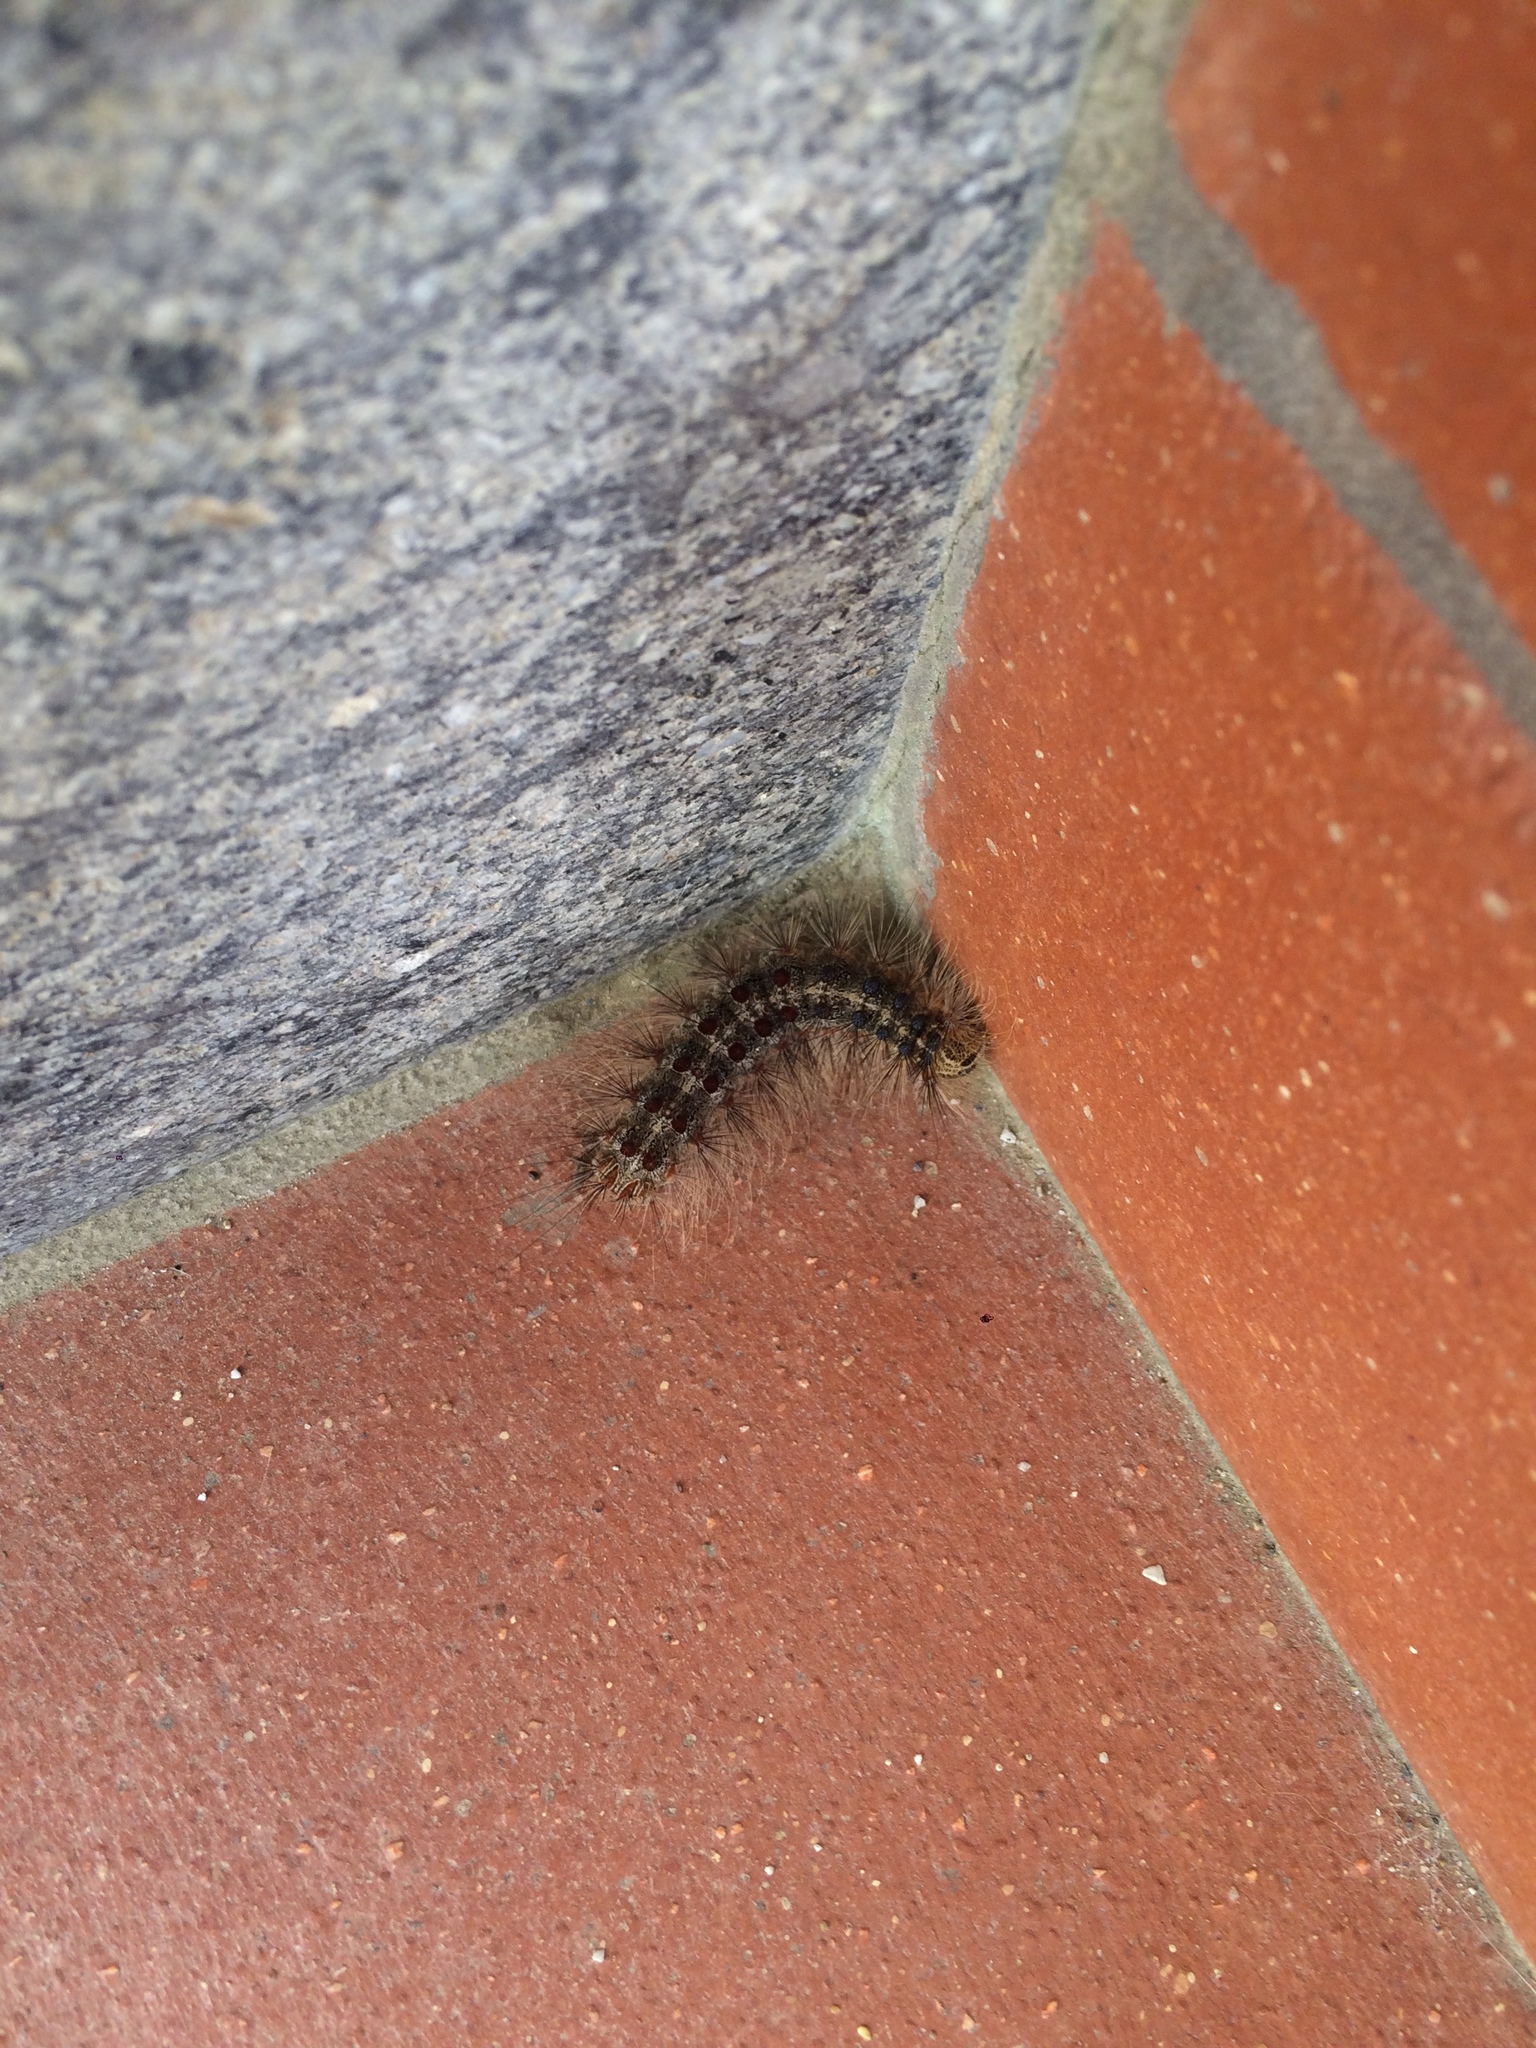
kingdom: Animalia
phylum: Arthropoda
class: Insecta
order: Lepidoptera
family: Erebidae
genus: Lymantria
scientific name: Lymantria dispar
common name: Gypsy moth
